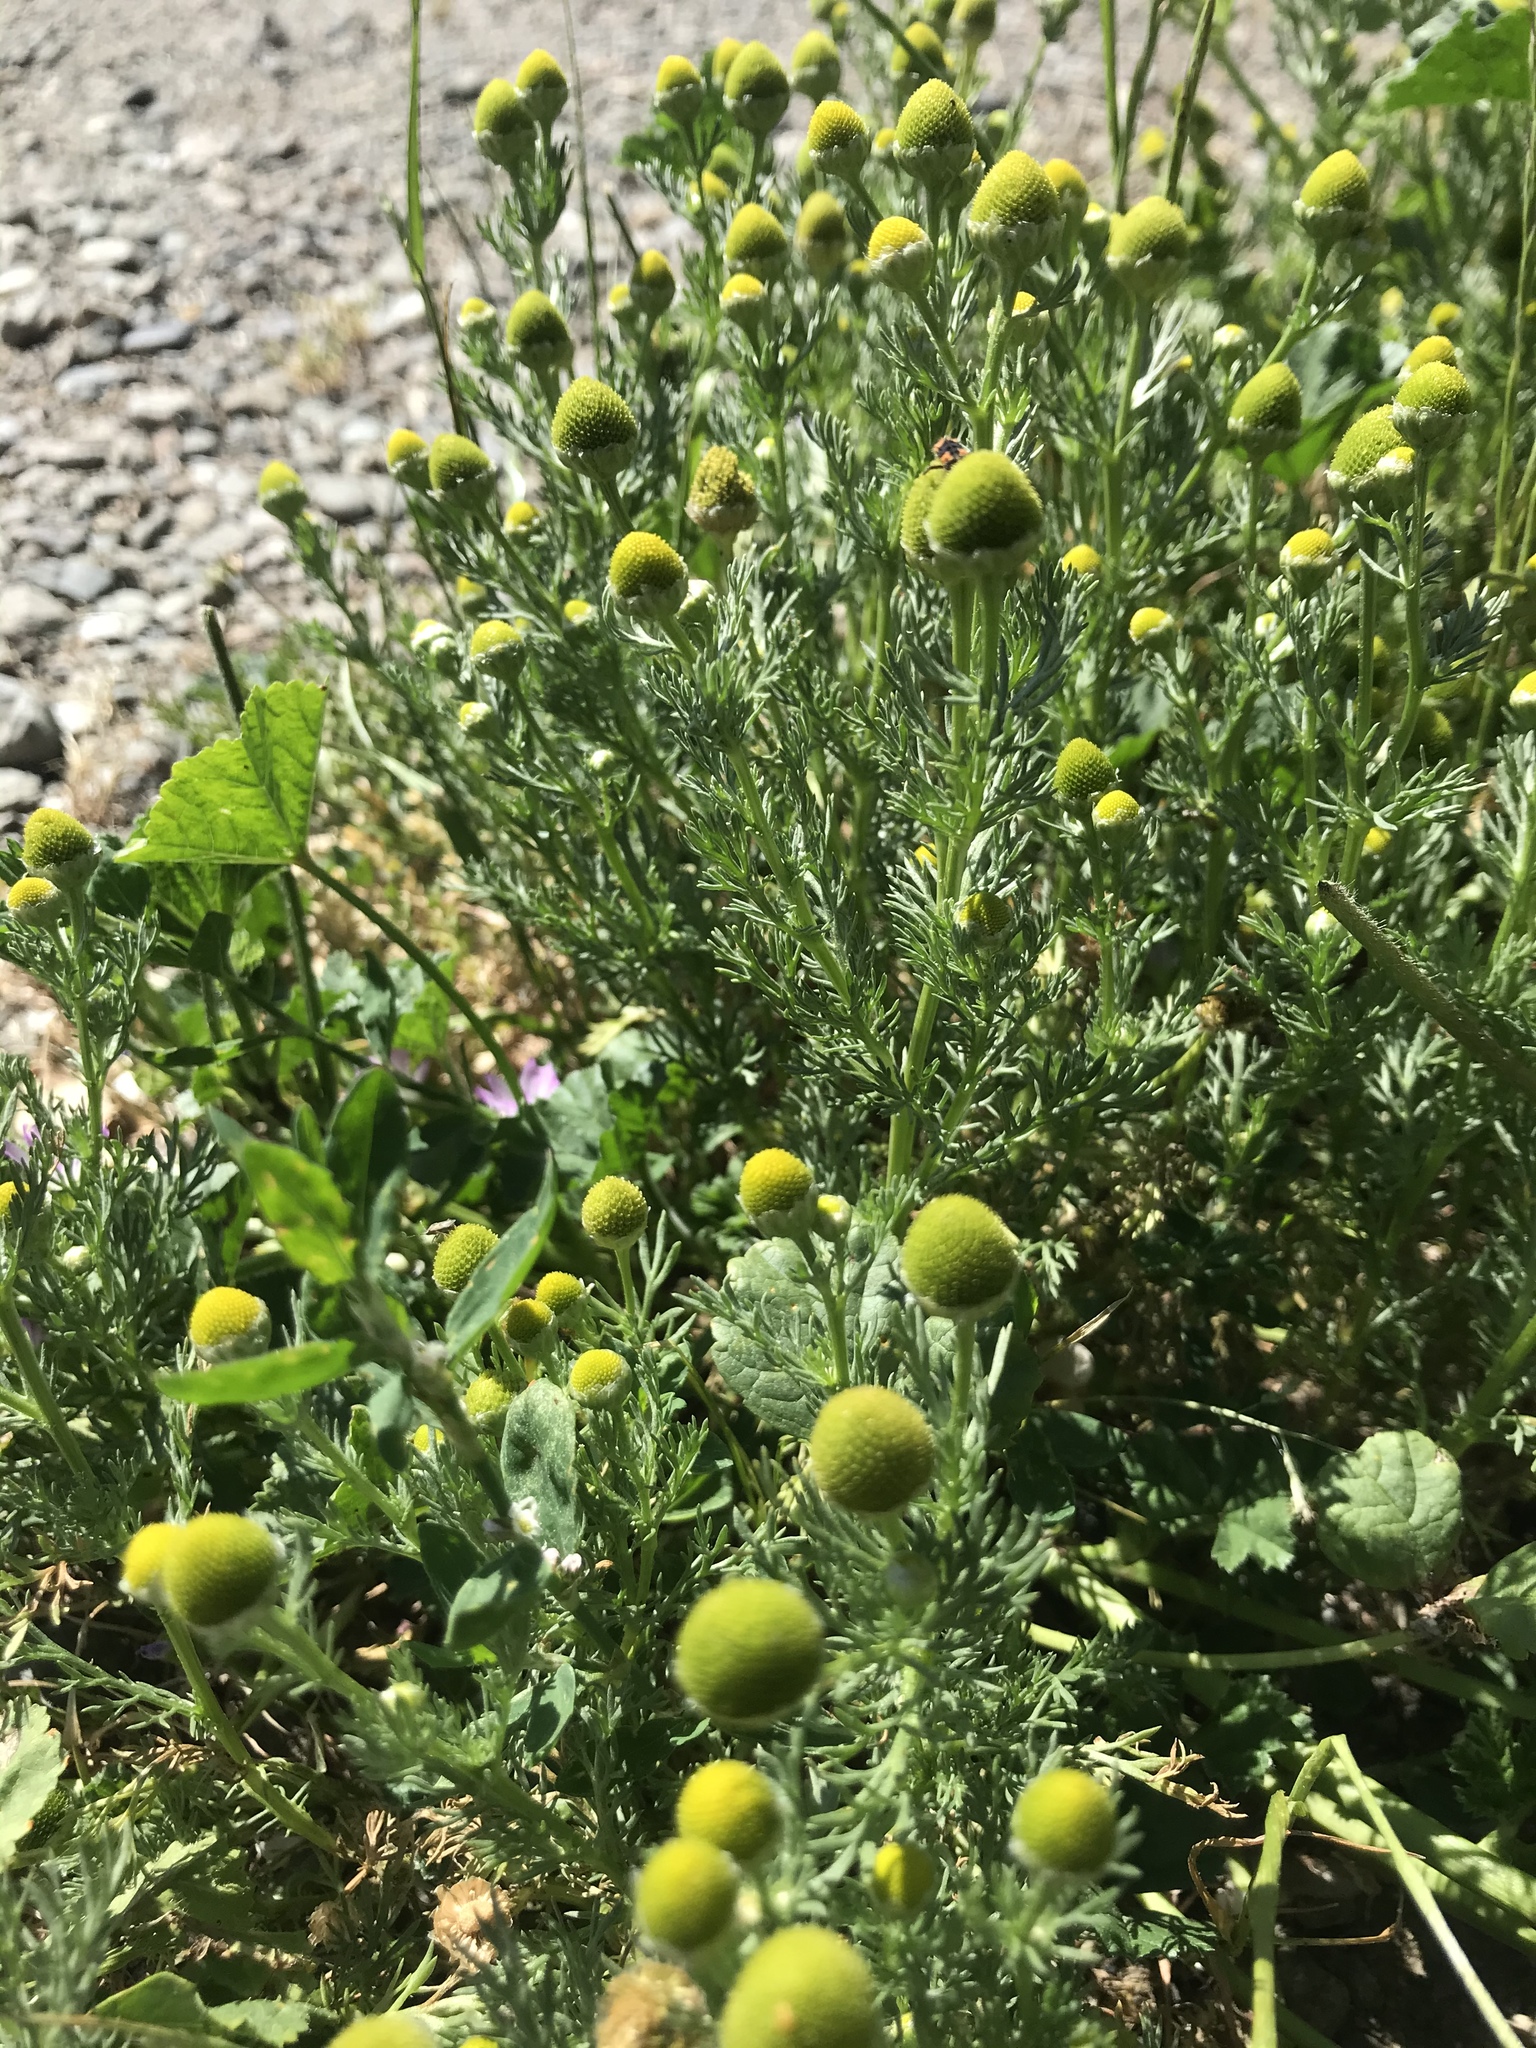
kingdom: Plantae
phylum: Tracheophyta
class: Magnoliopsida
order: Asterales
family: Asteraceae
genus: Matricaria
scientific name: Matricaria discoidea
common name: Disc mayweed
